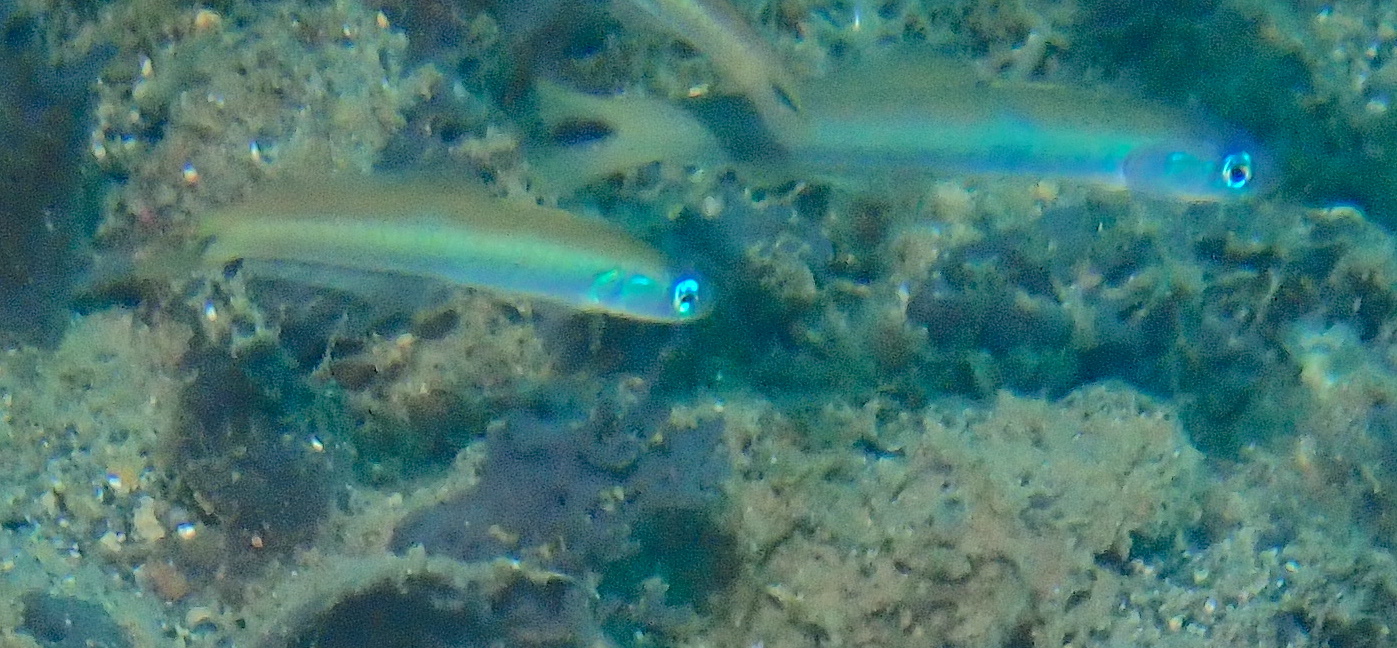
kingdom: Animalia
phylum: Chordata
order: Perciformes
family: Microdesmidae
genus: Ptereleotris
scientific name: Ptereleotris heteroptera
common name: Blacktail goby
